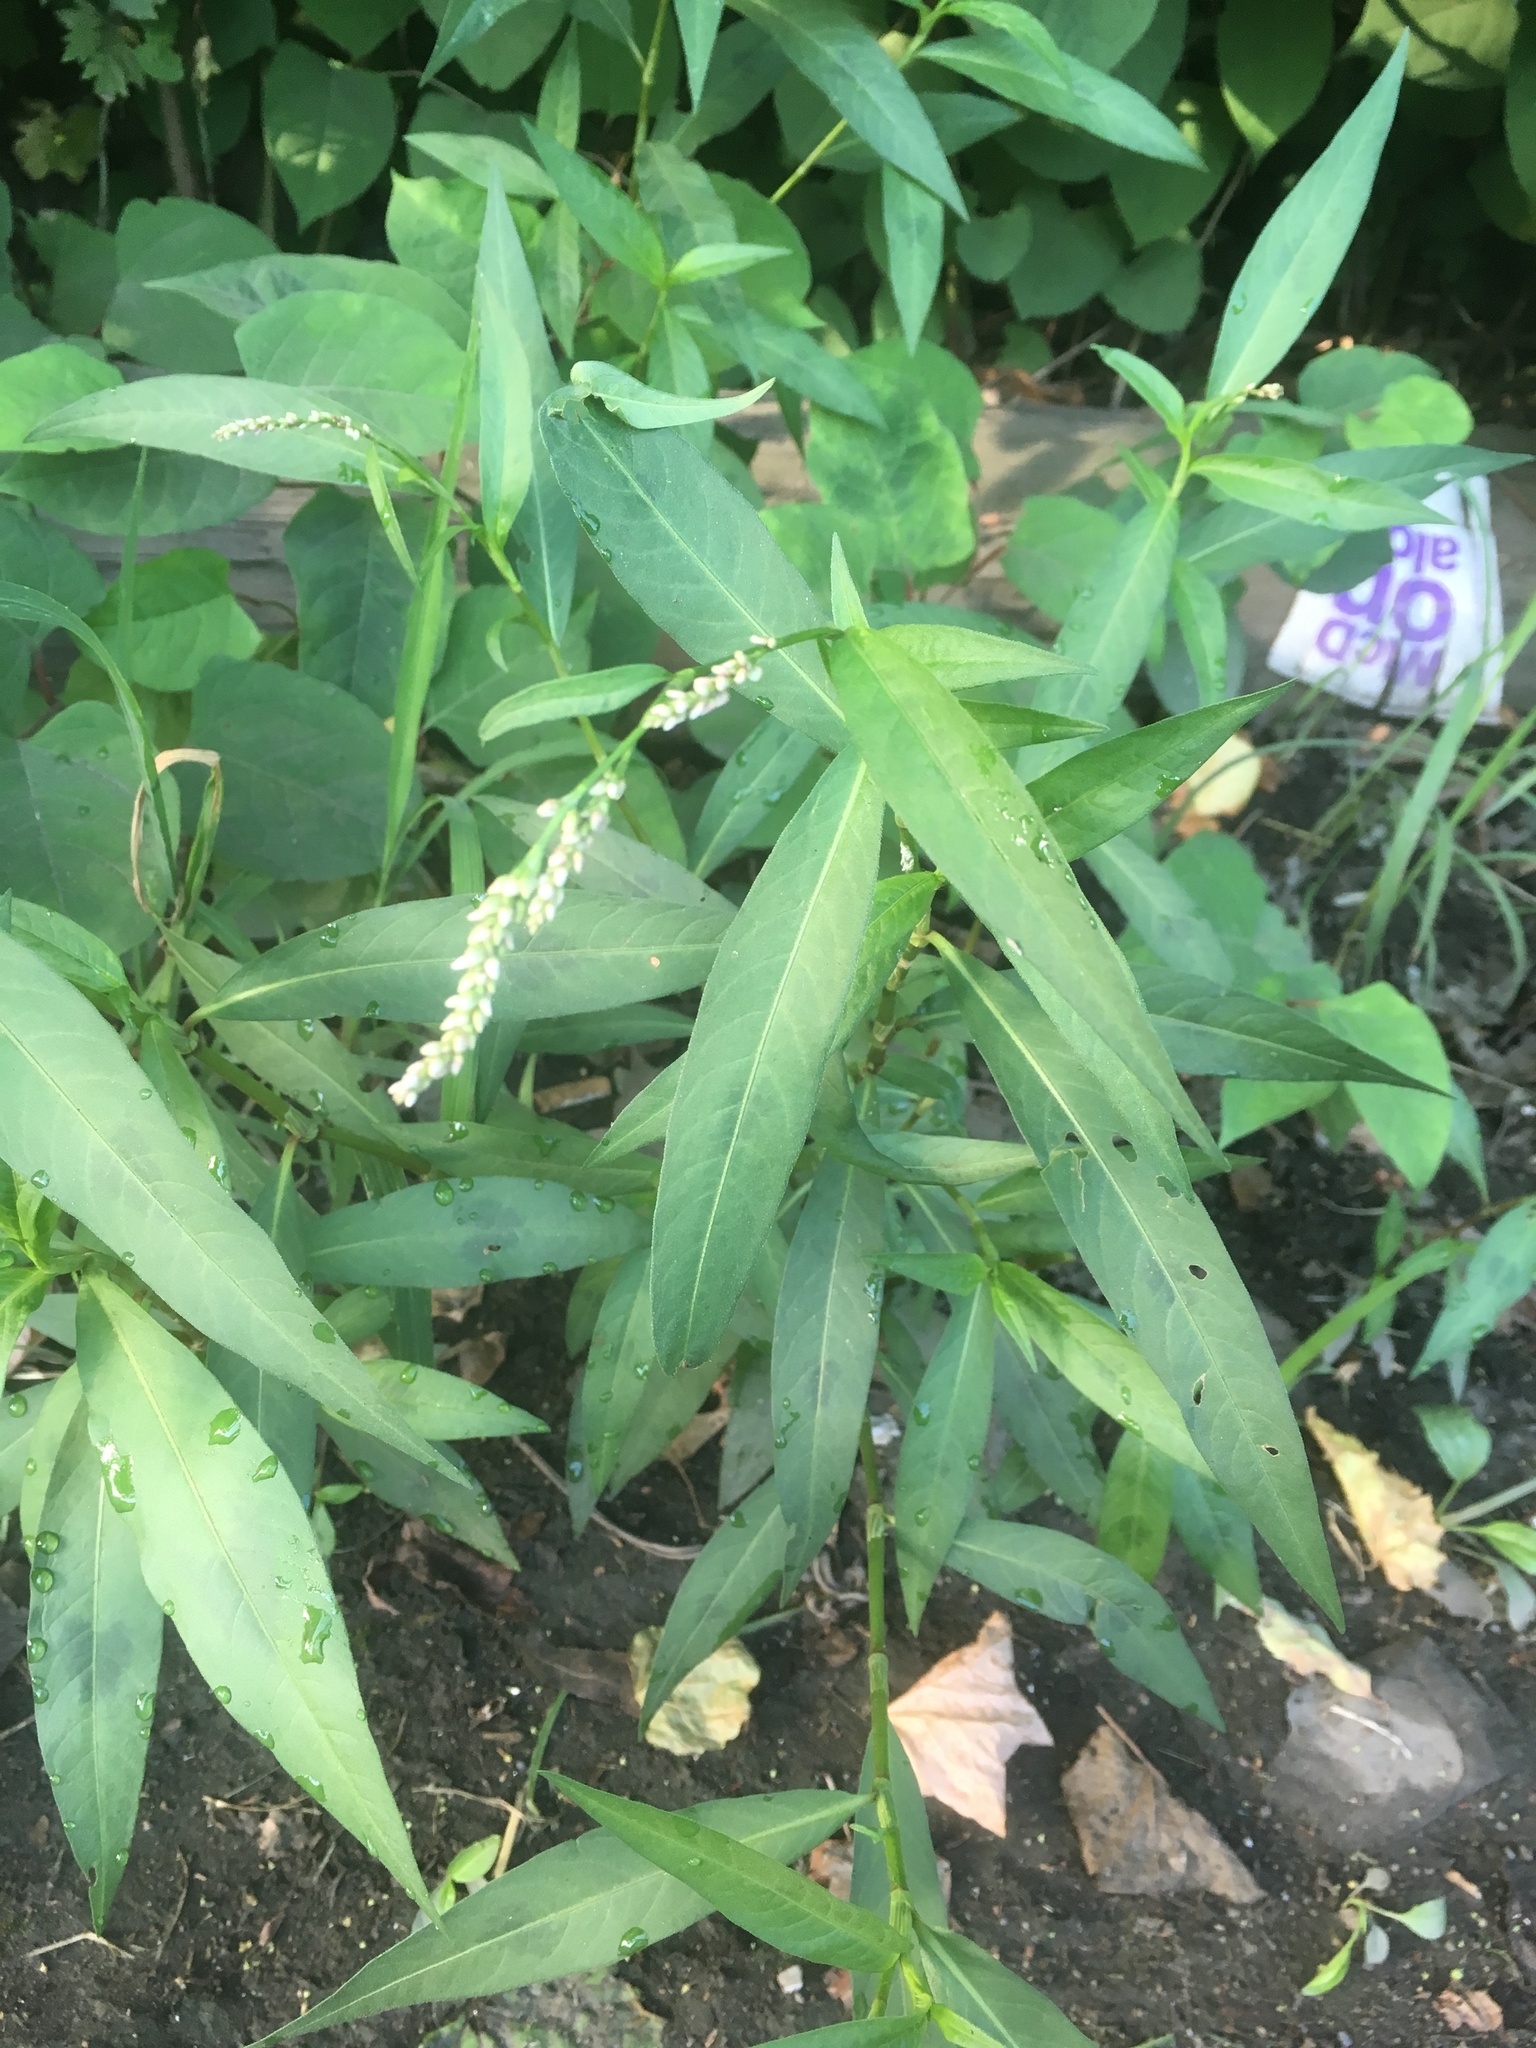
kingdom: Plantae
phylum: Tracheophyta
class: Magnoliopsida
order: Caryophyllales
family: Polygonaceae
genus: Persicaria
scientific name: Persicaria maculosa
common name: Redshank
